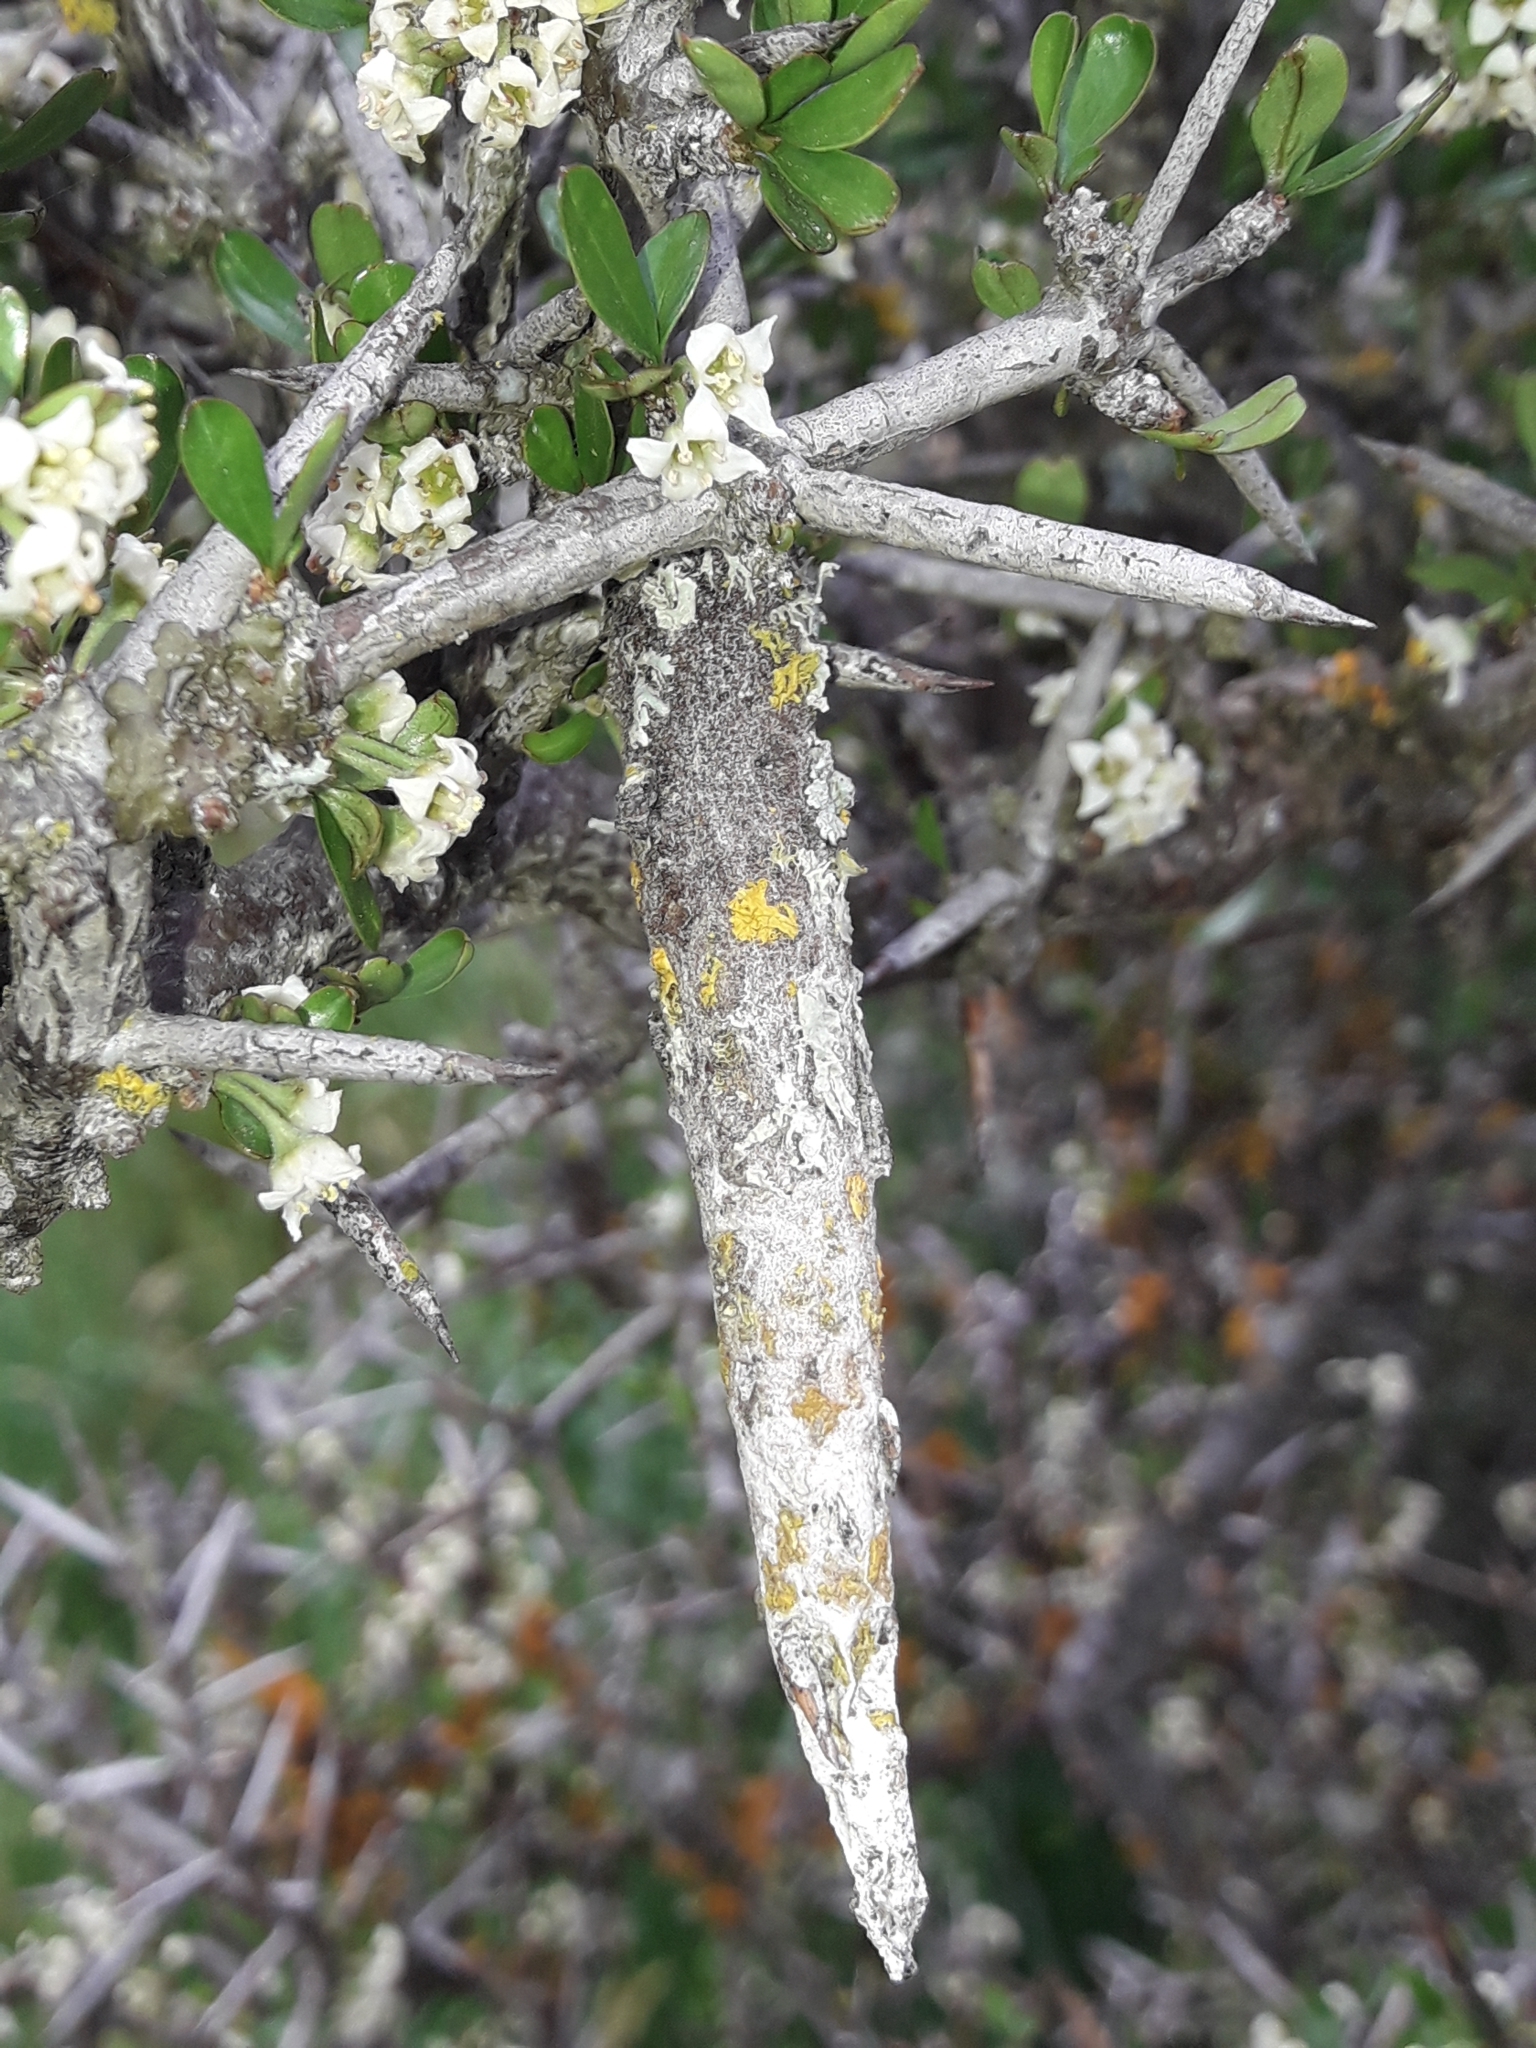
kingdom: Animalia
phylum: Arthropoda
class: Insecta
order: Lepidoptera
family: Psychidae
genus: Liothula
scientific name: Liothula omnivora
